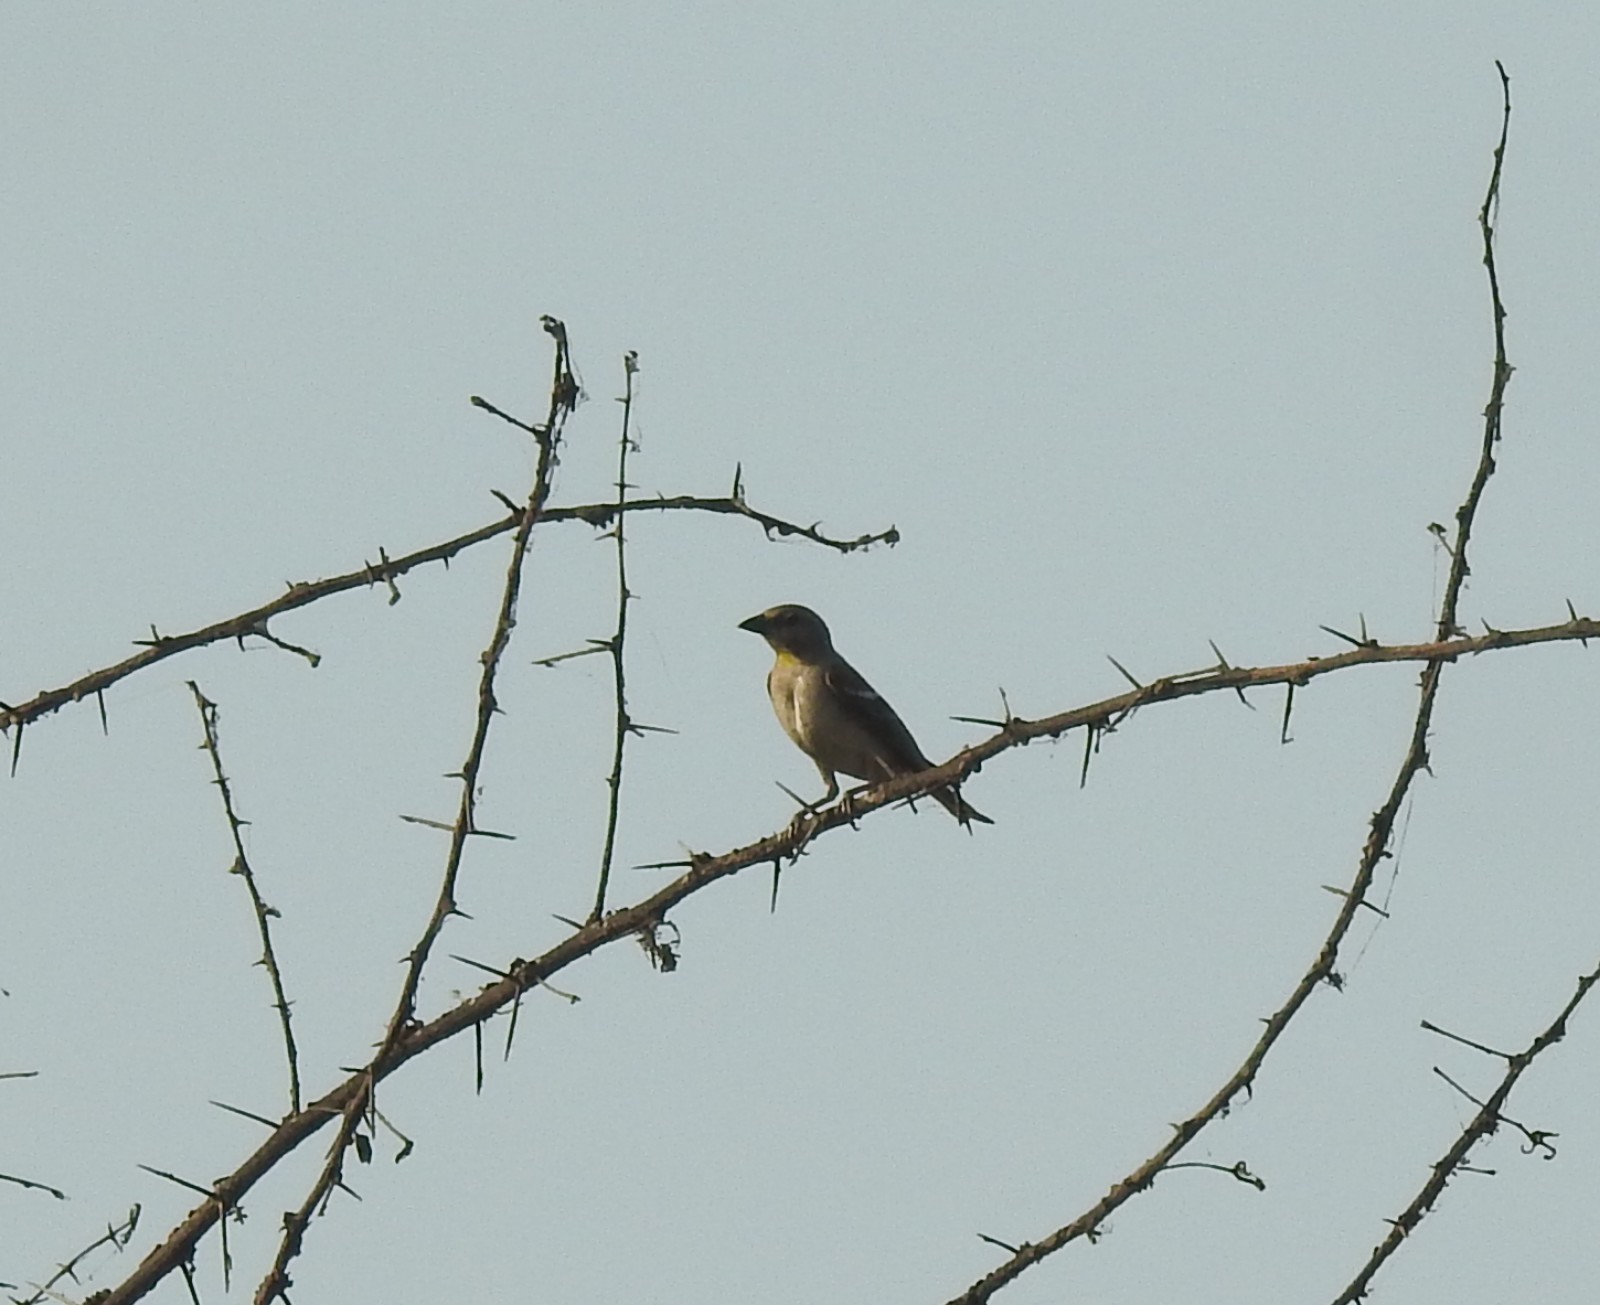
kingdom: Animalia
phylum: Chordata
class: Aves
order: Passeriformes
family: Passeridae
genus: Gymnoris
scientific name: Gymnoris xanthocollis
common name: Yellow-throated sparrow
